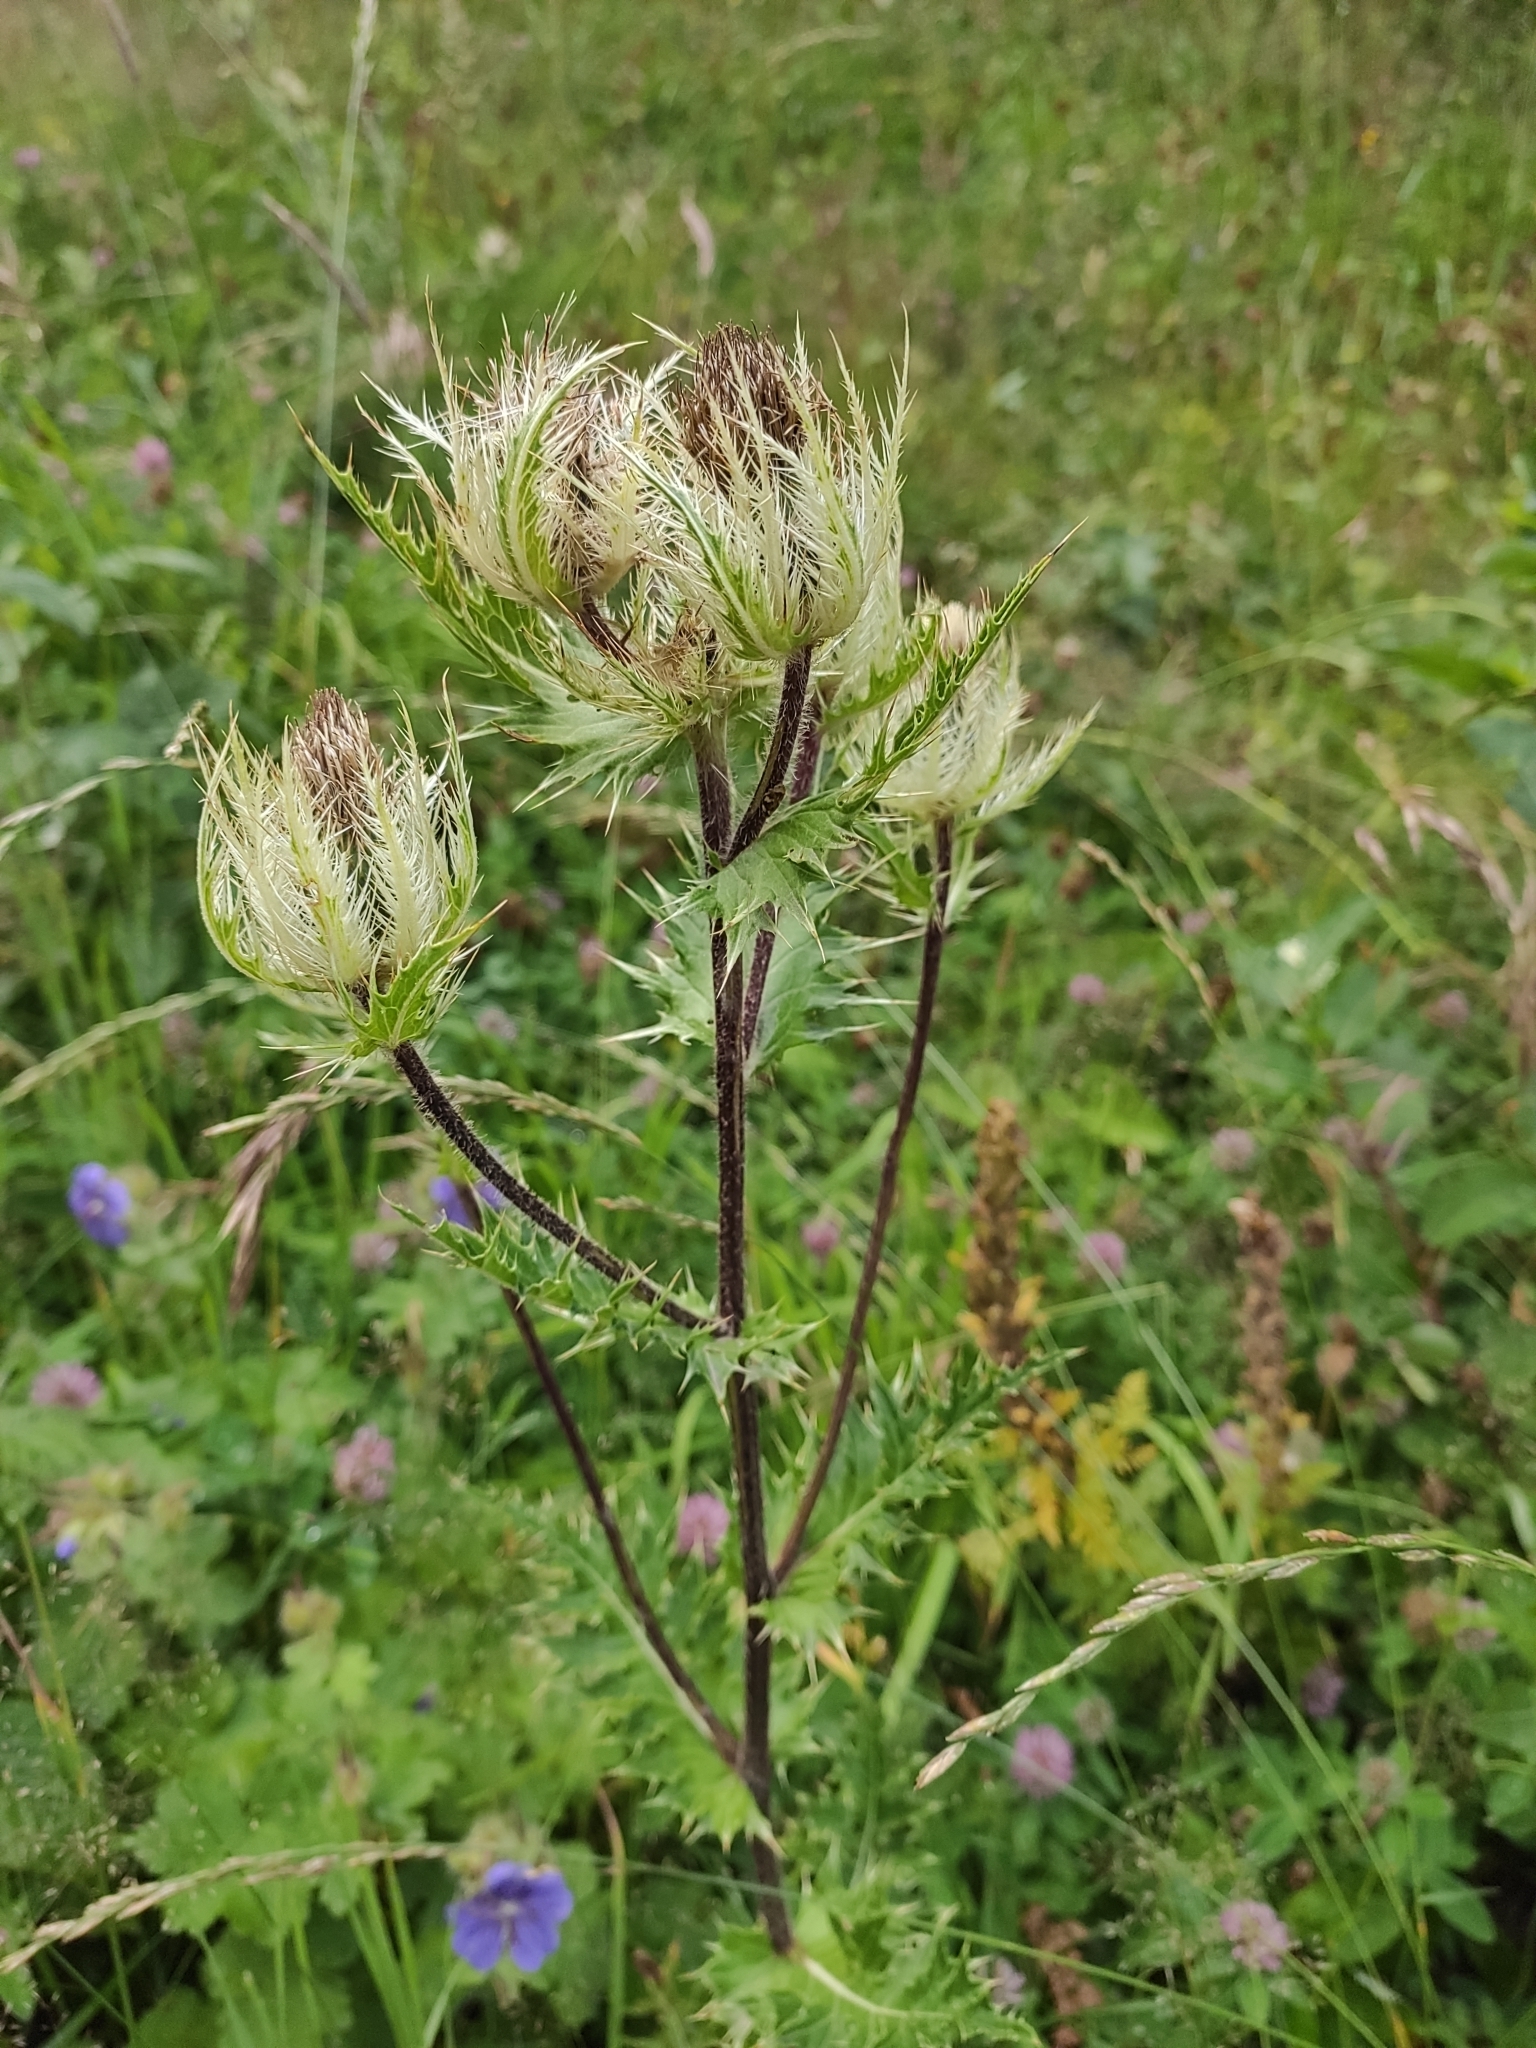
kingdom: Plantae
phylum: Tracheophyta
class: Magnoliopsida
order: Asterales
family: Asteraceae
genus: Cirsium
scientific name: Cirsium obvallatum
